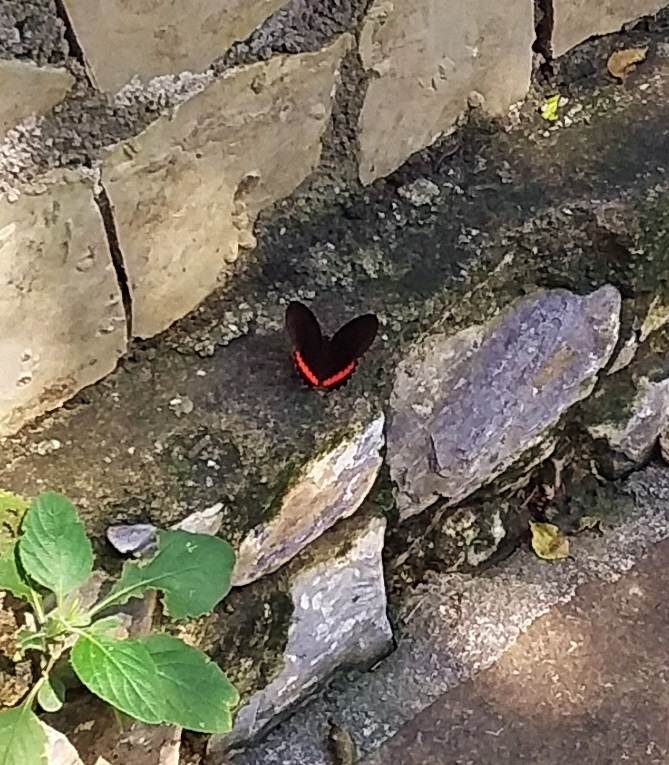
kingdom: Animalia
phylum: Arthropoda
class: Insecta
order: Lepidoptera
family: Nymphalidae
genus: Biblis
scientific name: Biblis aganisa
